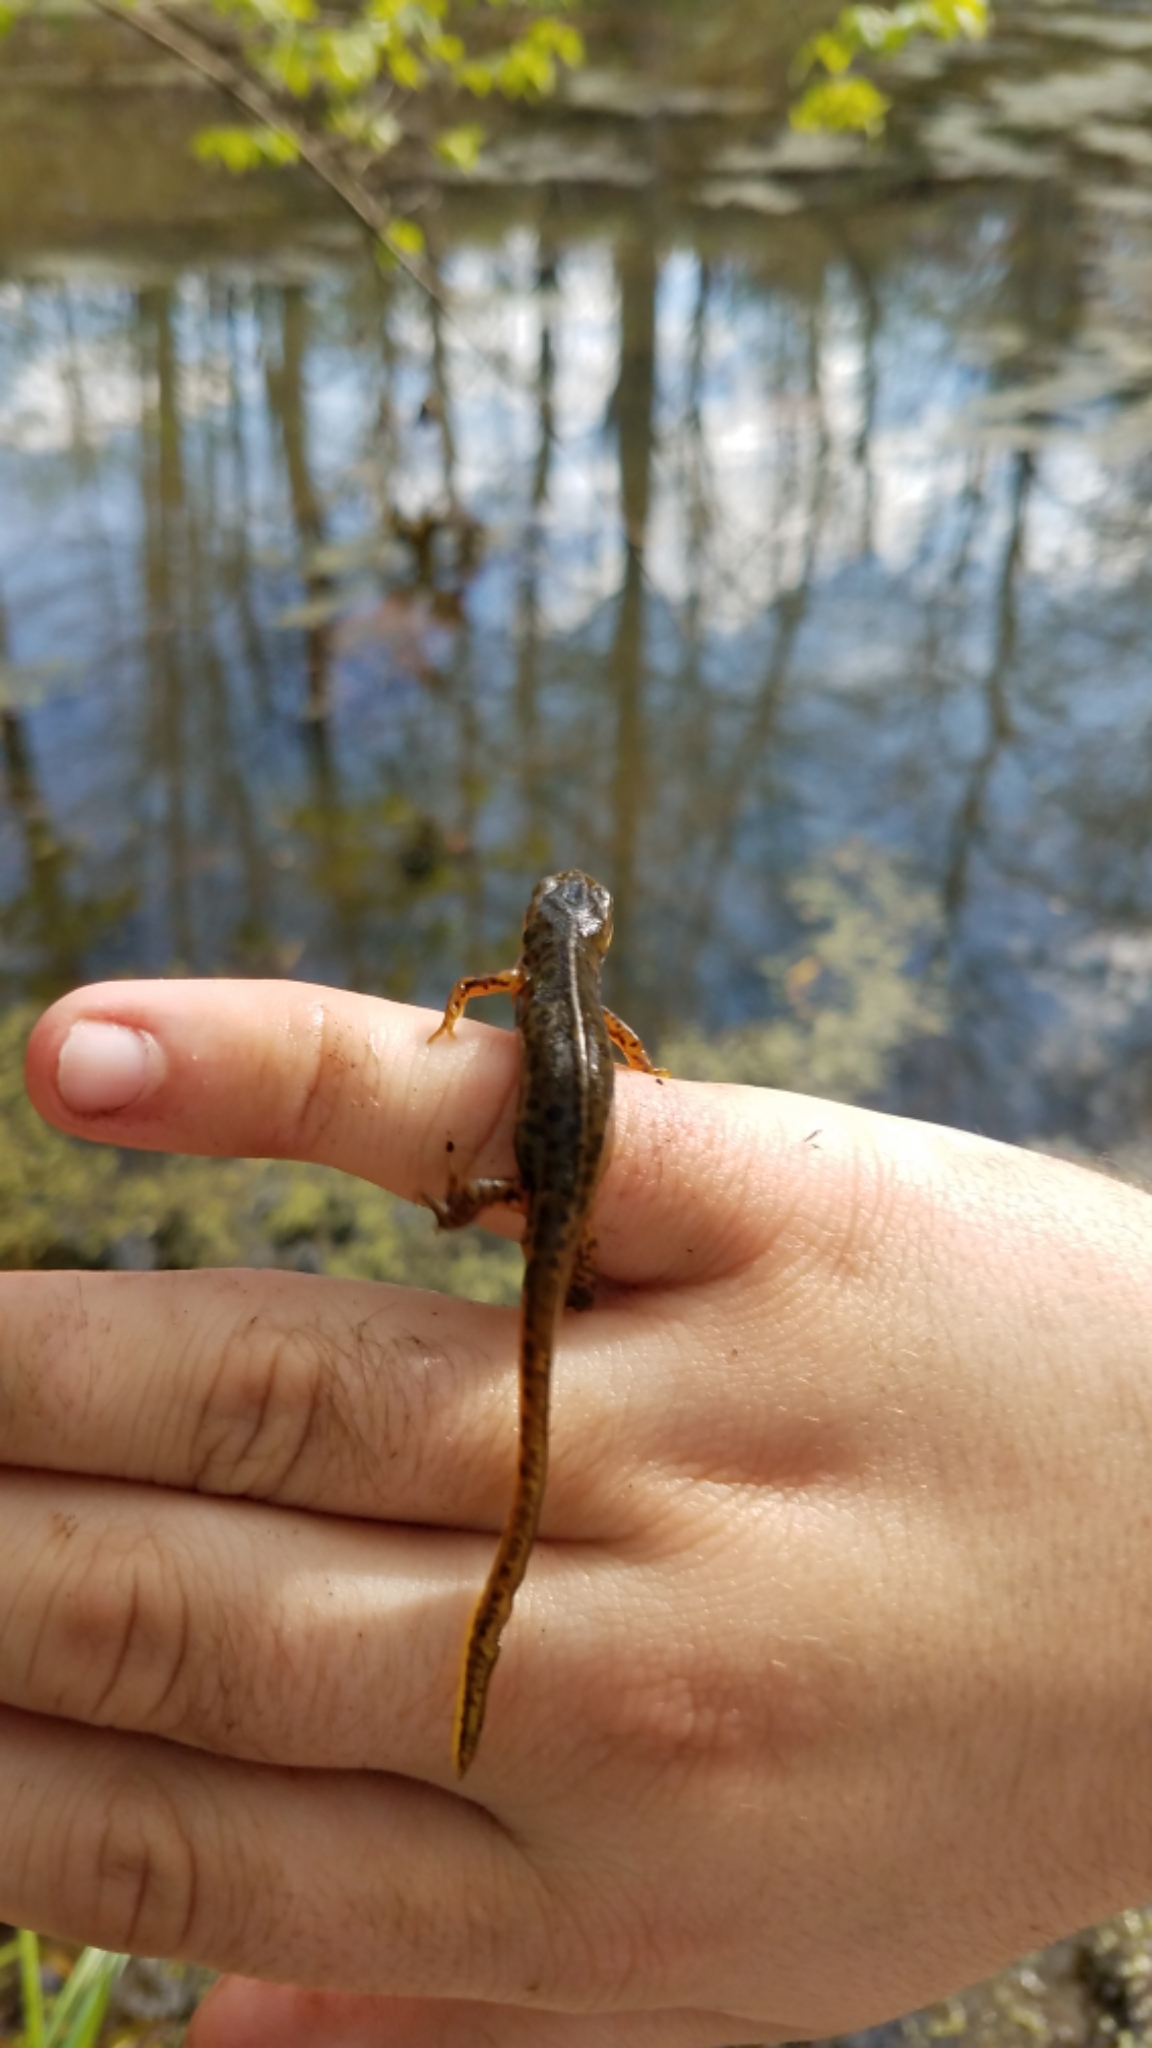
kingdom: Animalia
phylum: Chordata
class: Amphibia
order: Caudata
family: Salamandridae
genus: Notophthalmus
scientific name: Notophthalmus viridescens
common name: Eastern newt
